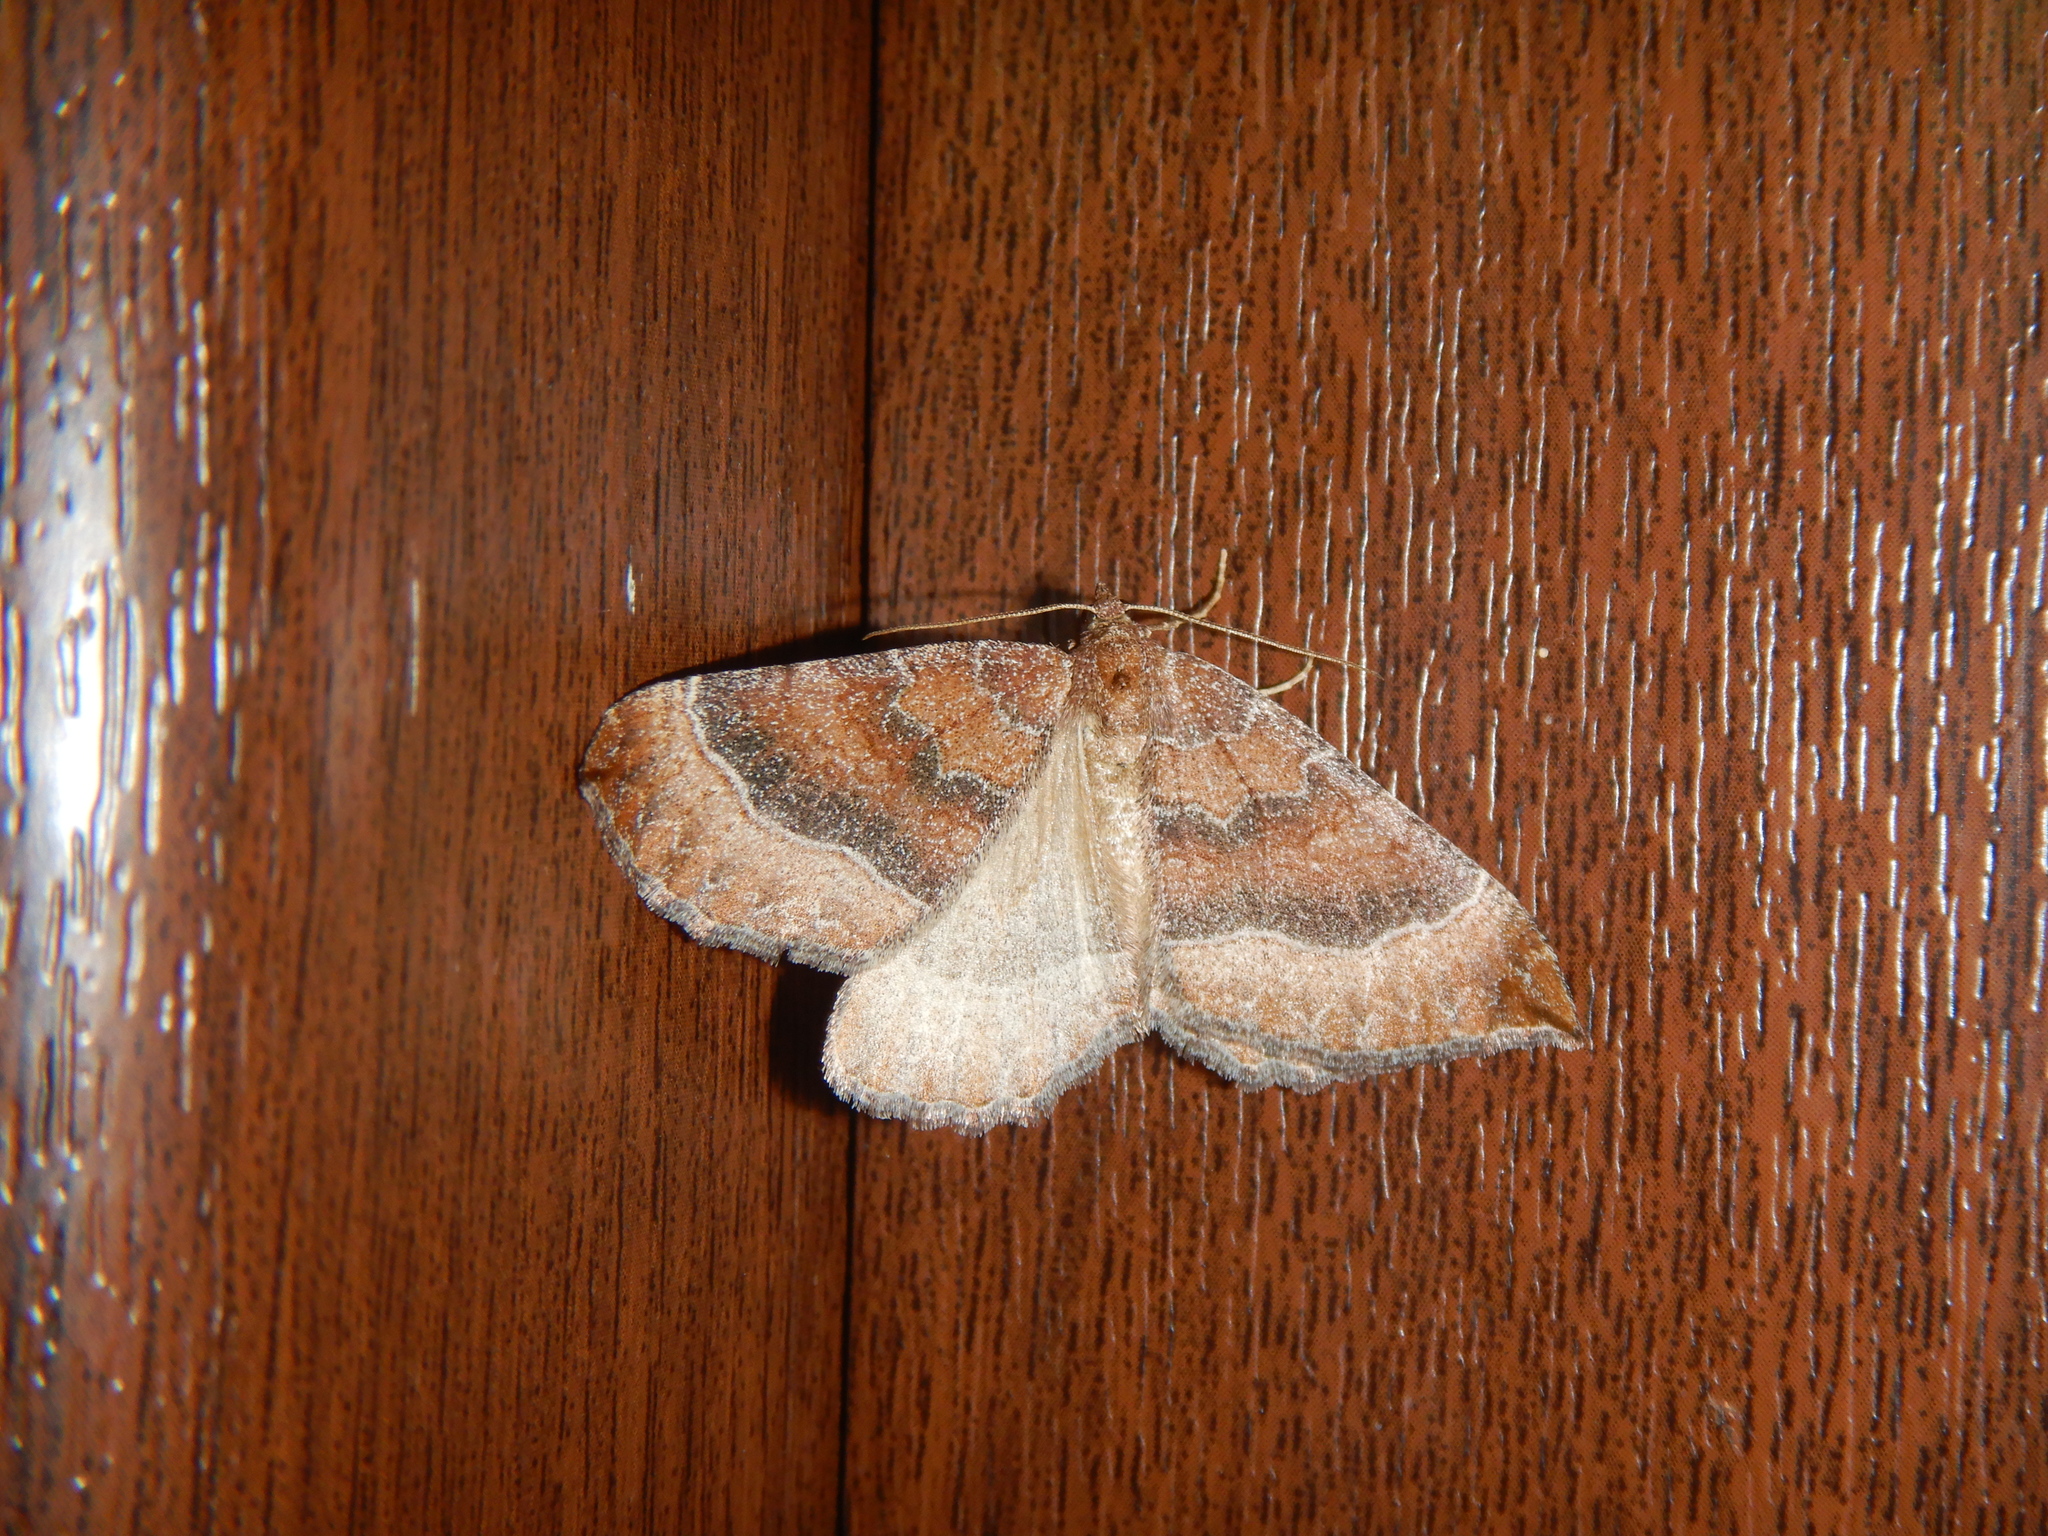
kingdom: Animalia
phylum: Arthropoda
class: Insecta
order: Lepidoptera
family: Geometridae
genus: Larentia
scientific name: Larentia clavaria
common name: Mallow
